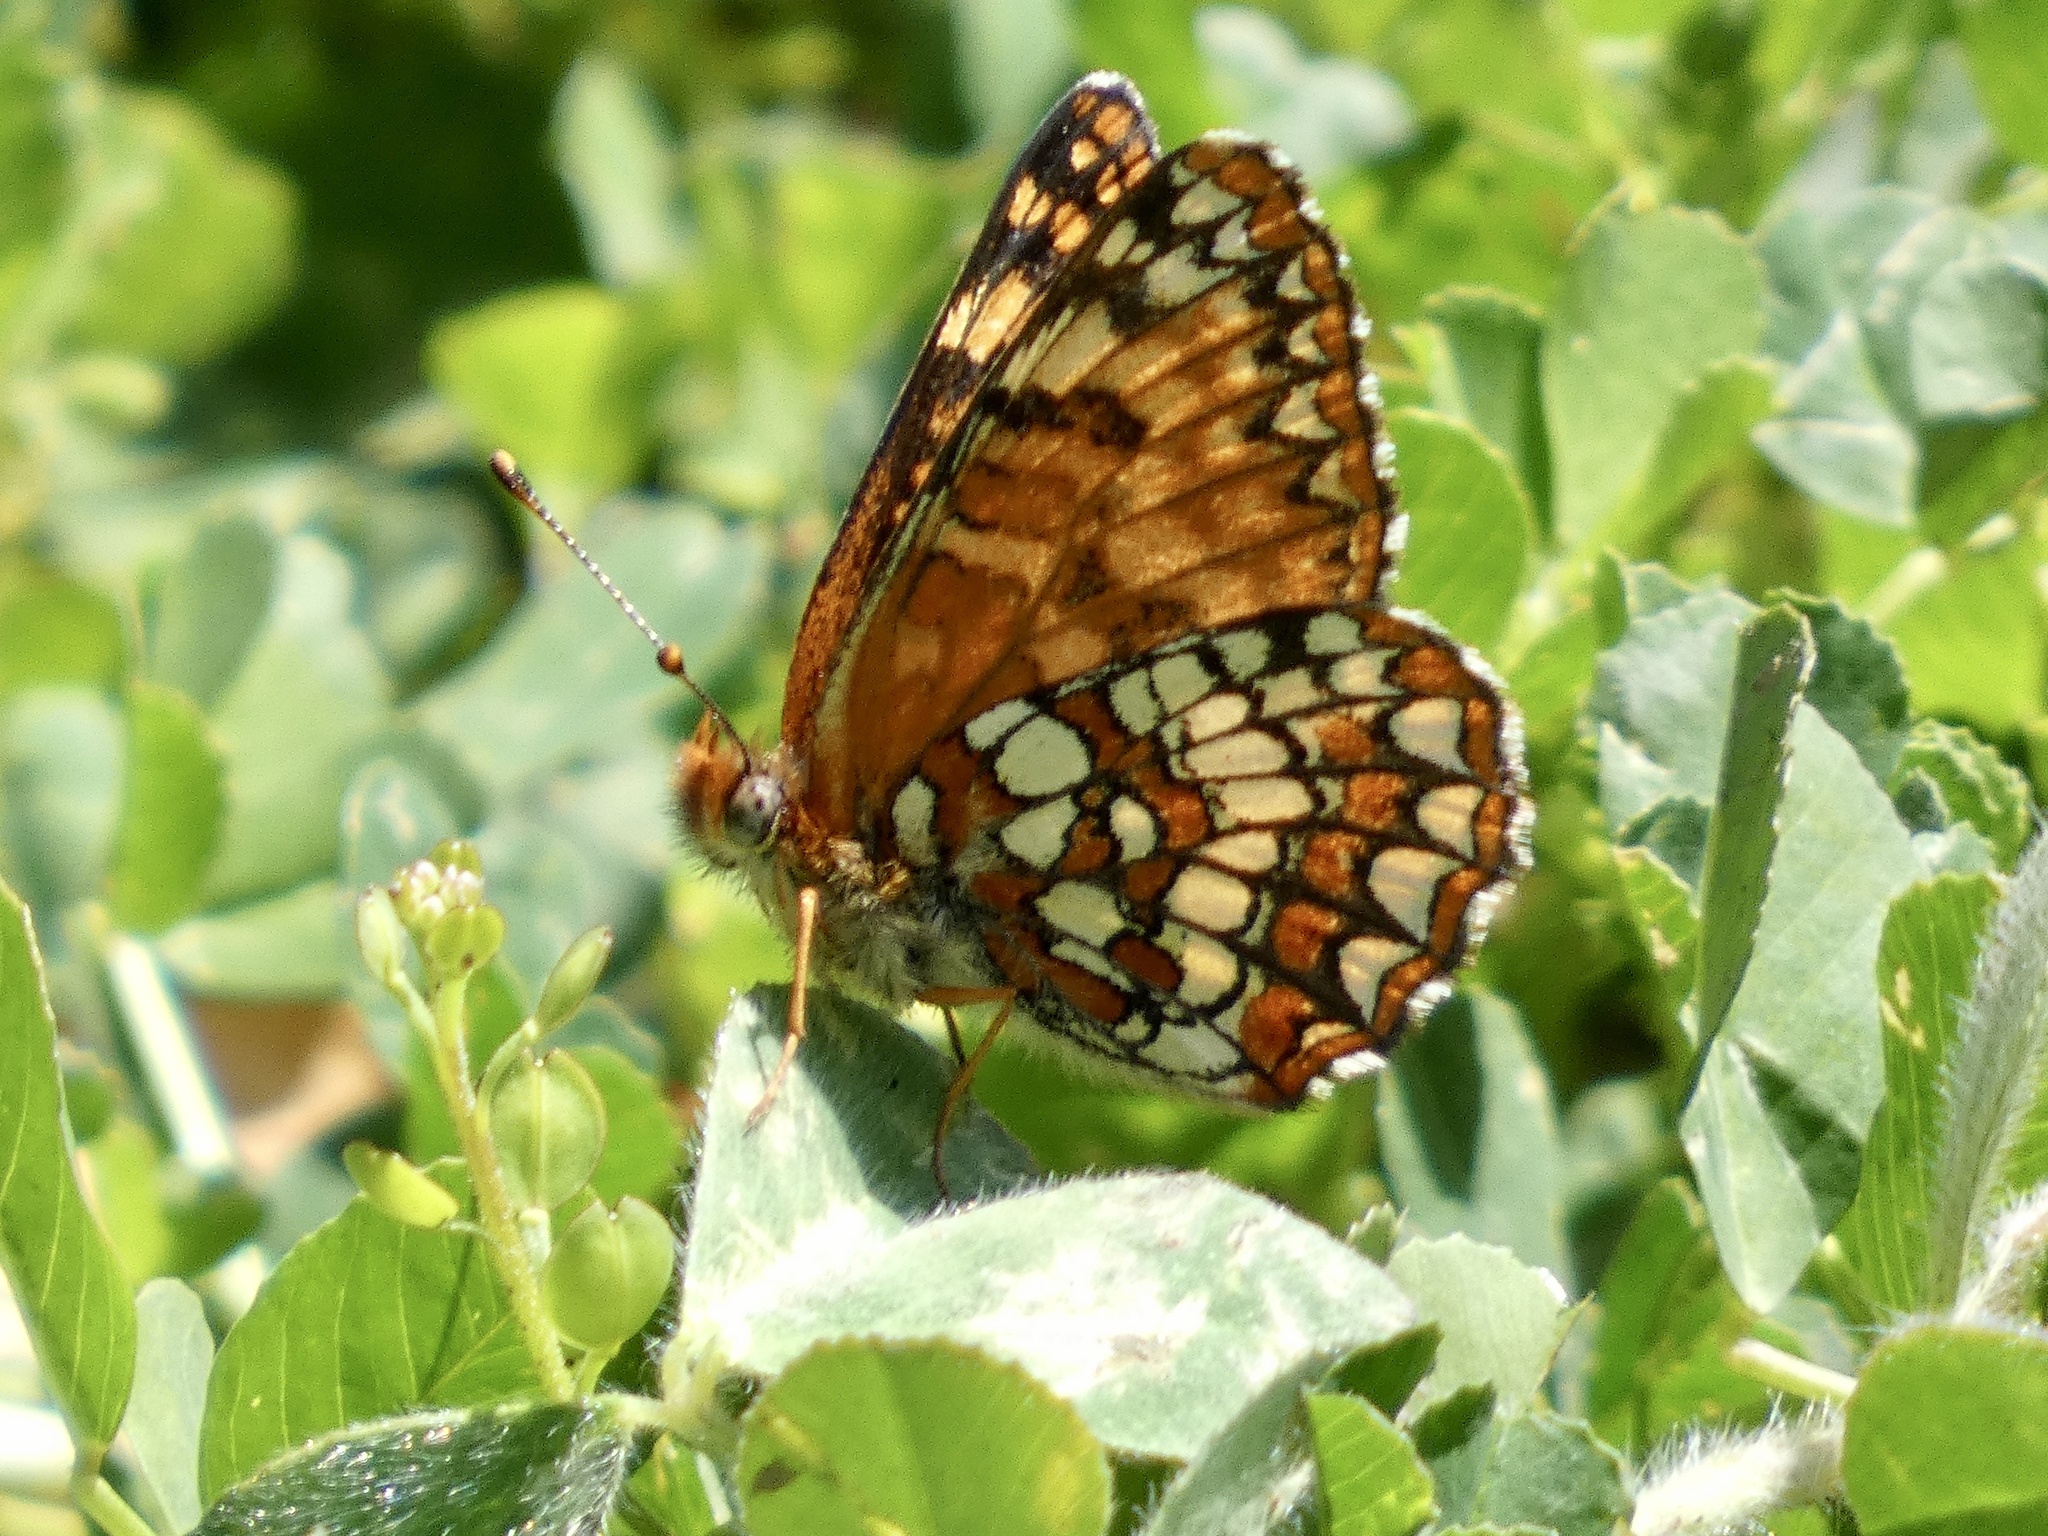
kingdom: Animalia
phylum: Arthropoda
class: Insecta
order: Lepidoptera
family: Nymphalidae
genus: Chlosyne
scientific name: Chlosyne palla
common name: Northern checkerspot
